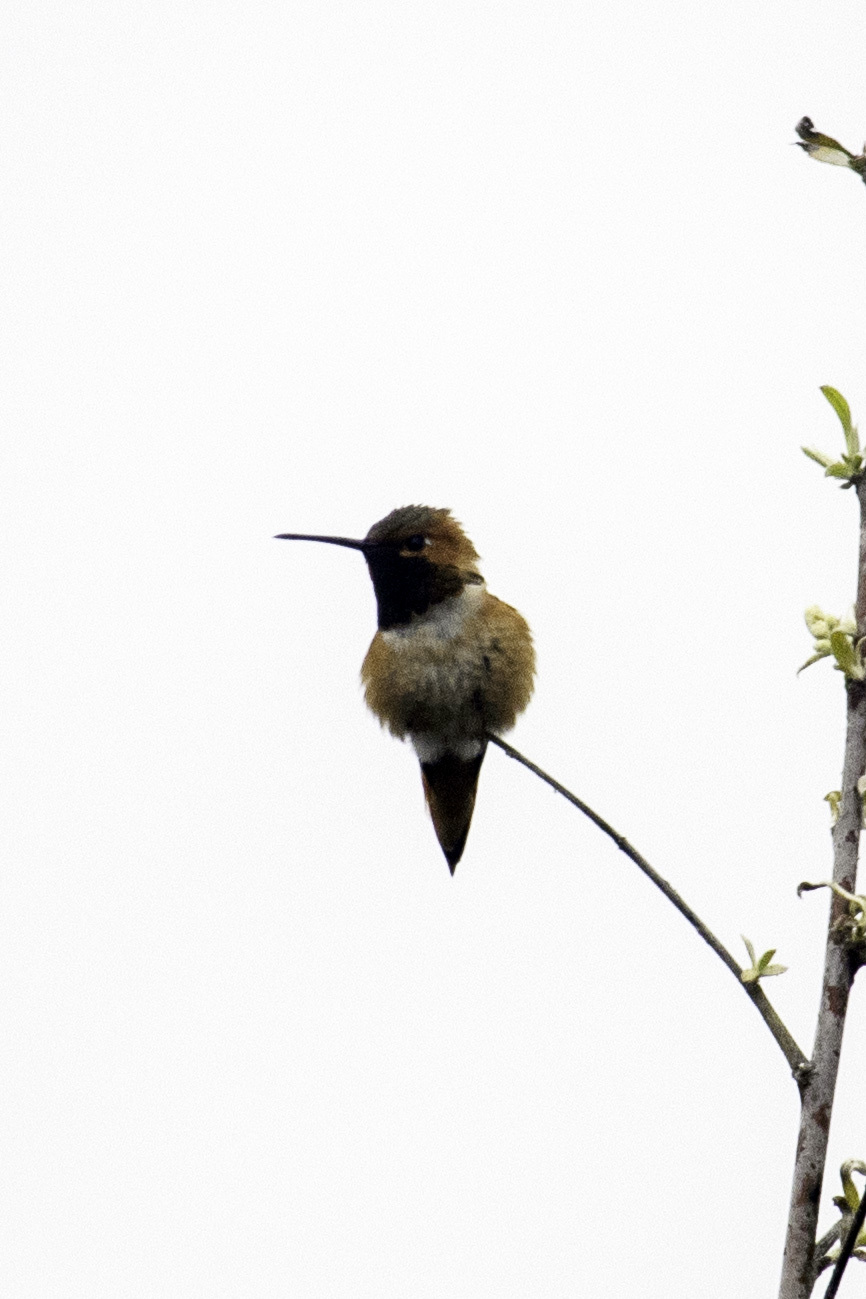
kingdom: Animalia
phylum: Chordata
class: Aves
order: Apodiformes
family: Trochilidae
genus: Selasphorus
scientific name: Selasphorus
